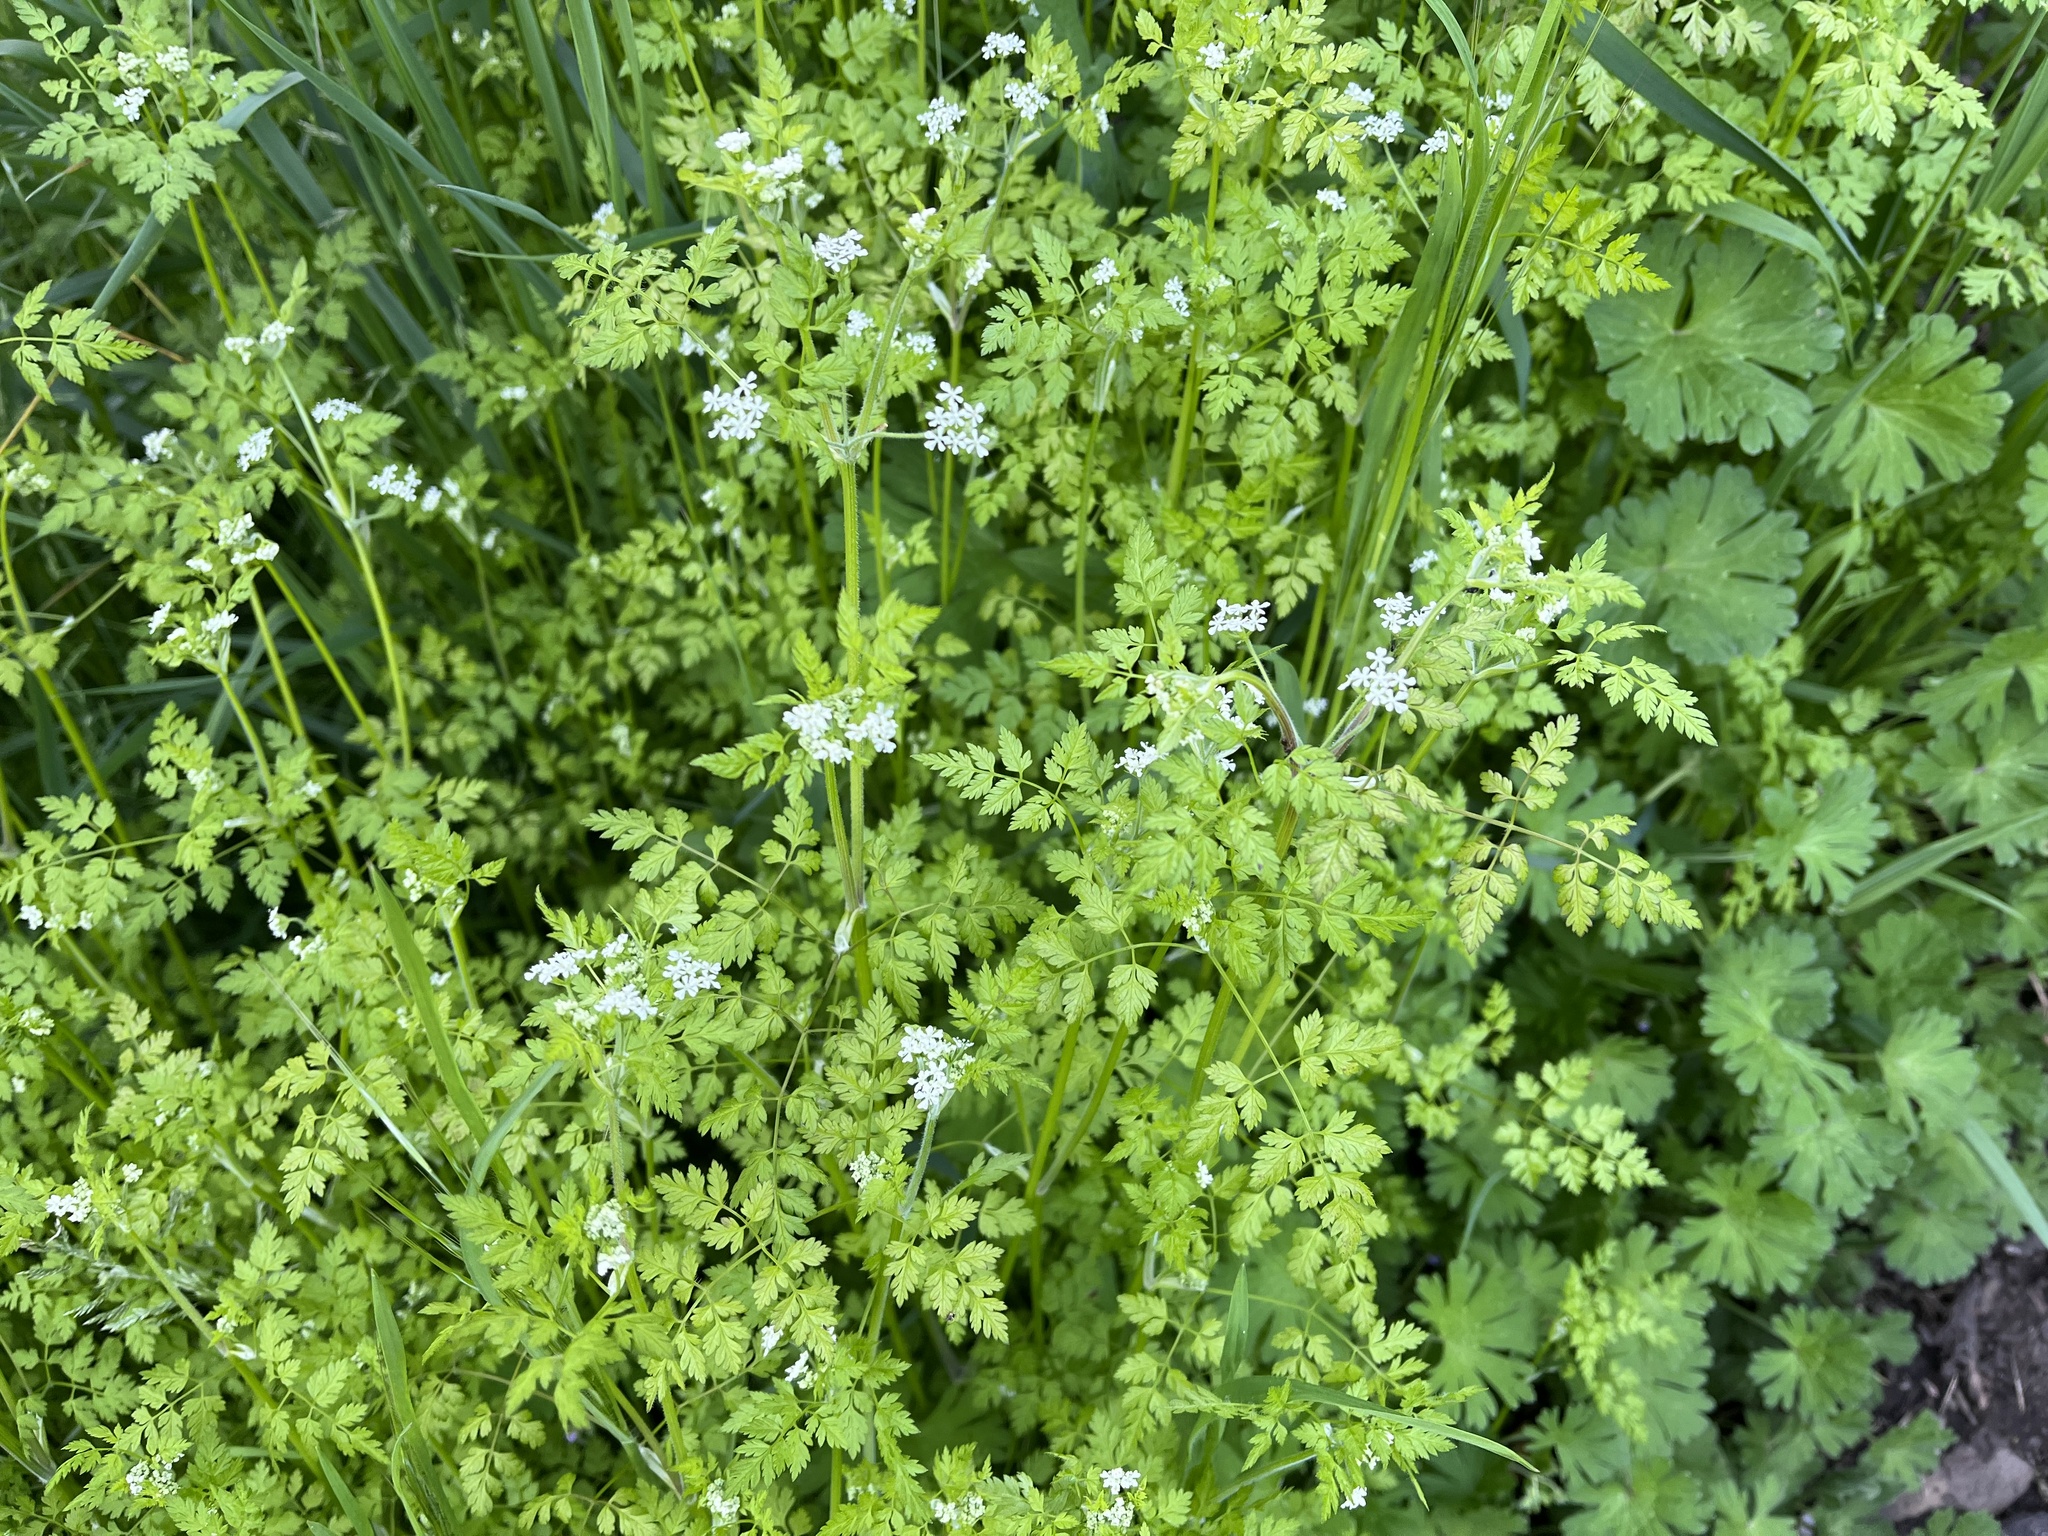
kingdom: Plantae
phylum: Tracheophyta
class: Magnoliopsida
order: Apiales
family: Apiaceae
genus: Anthriscus
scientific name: Anthriscus cerefolium
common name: Garden chervil
